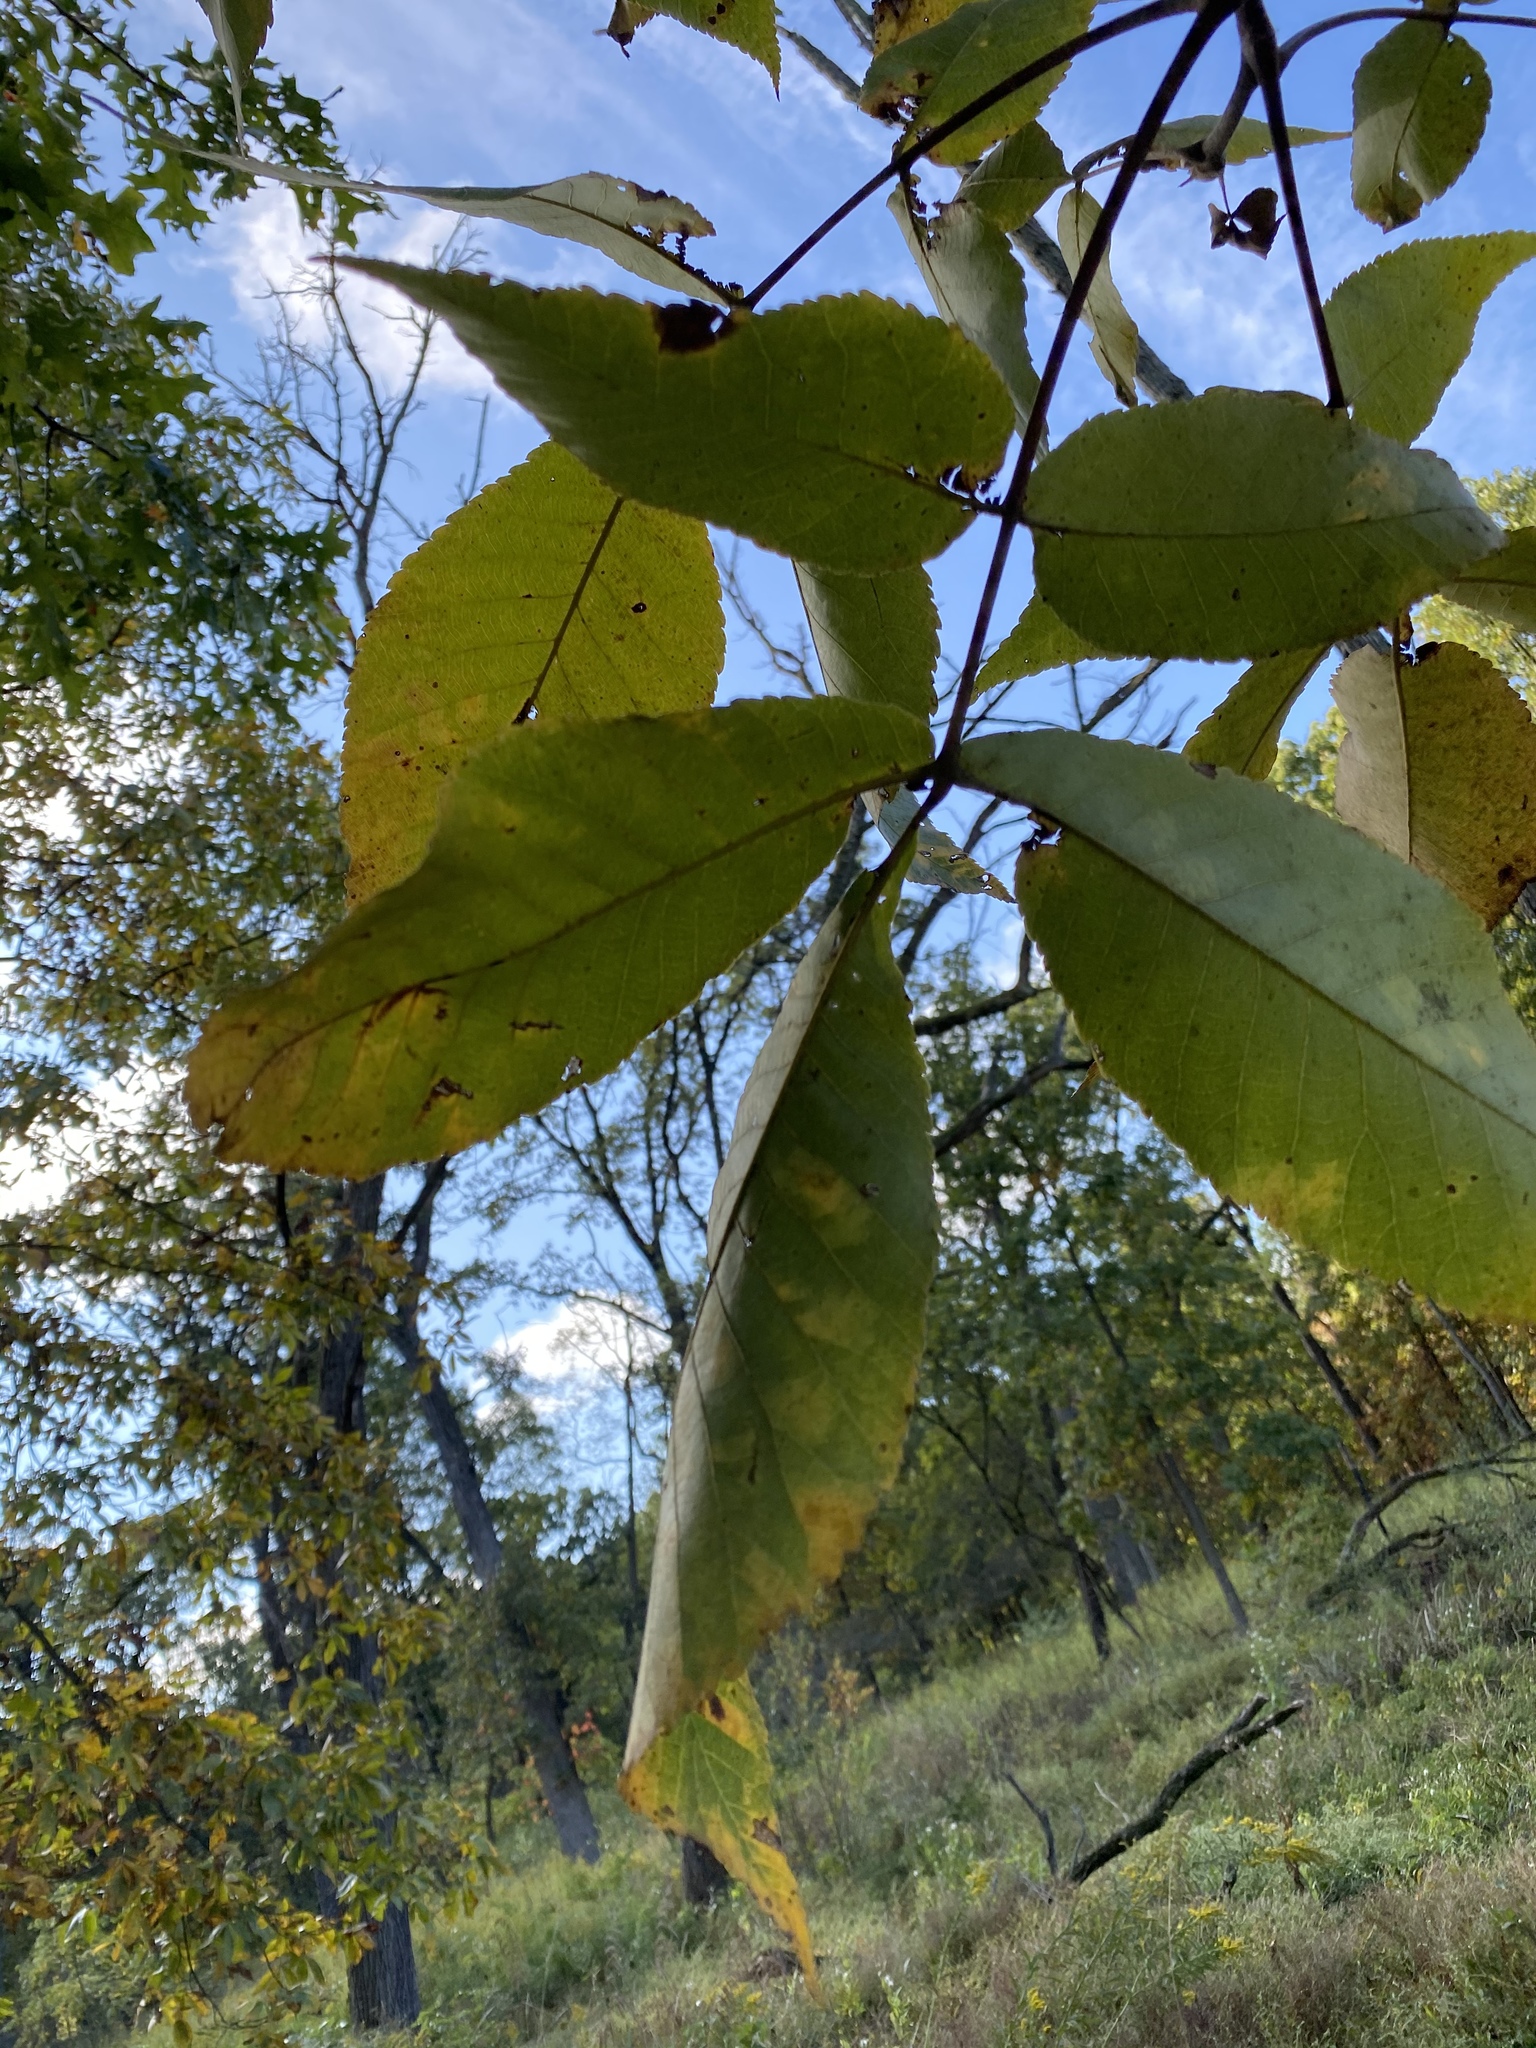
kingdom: Plantae
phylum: Tracheophyta
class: Magnoliopsida
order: Fagales
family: Juglandaceae
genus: Carya
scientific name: Carya ovata
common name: Shagbark hickory
